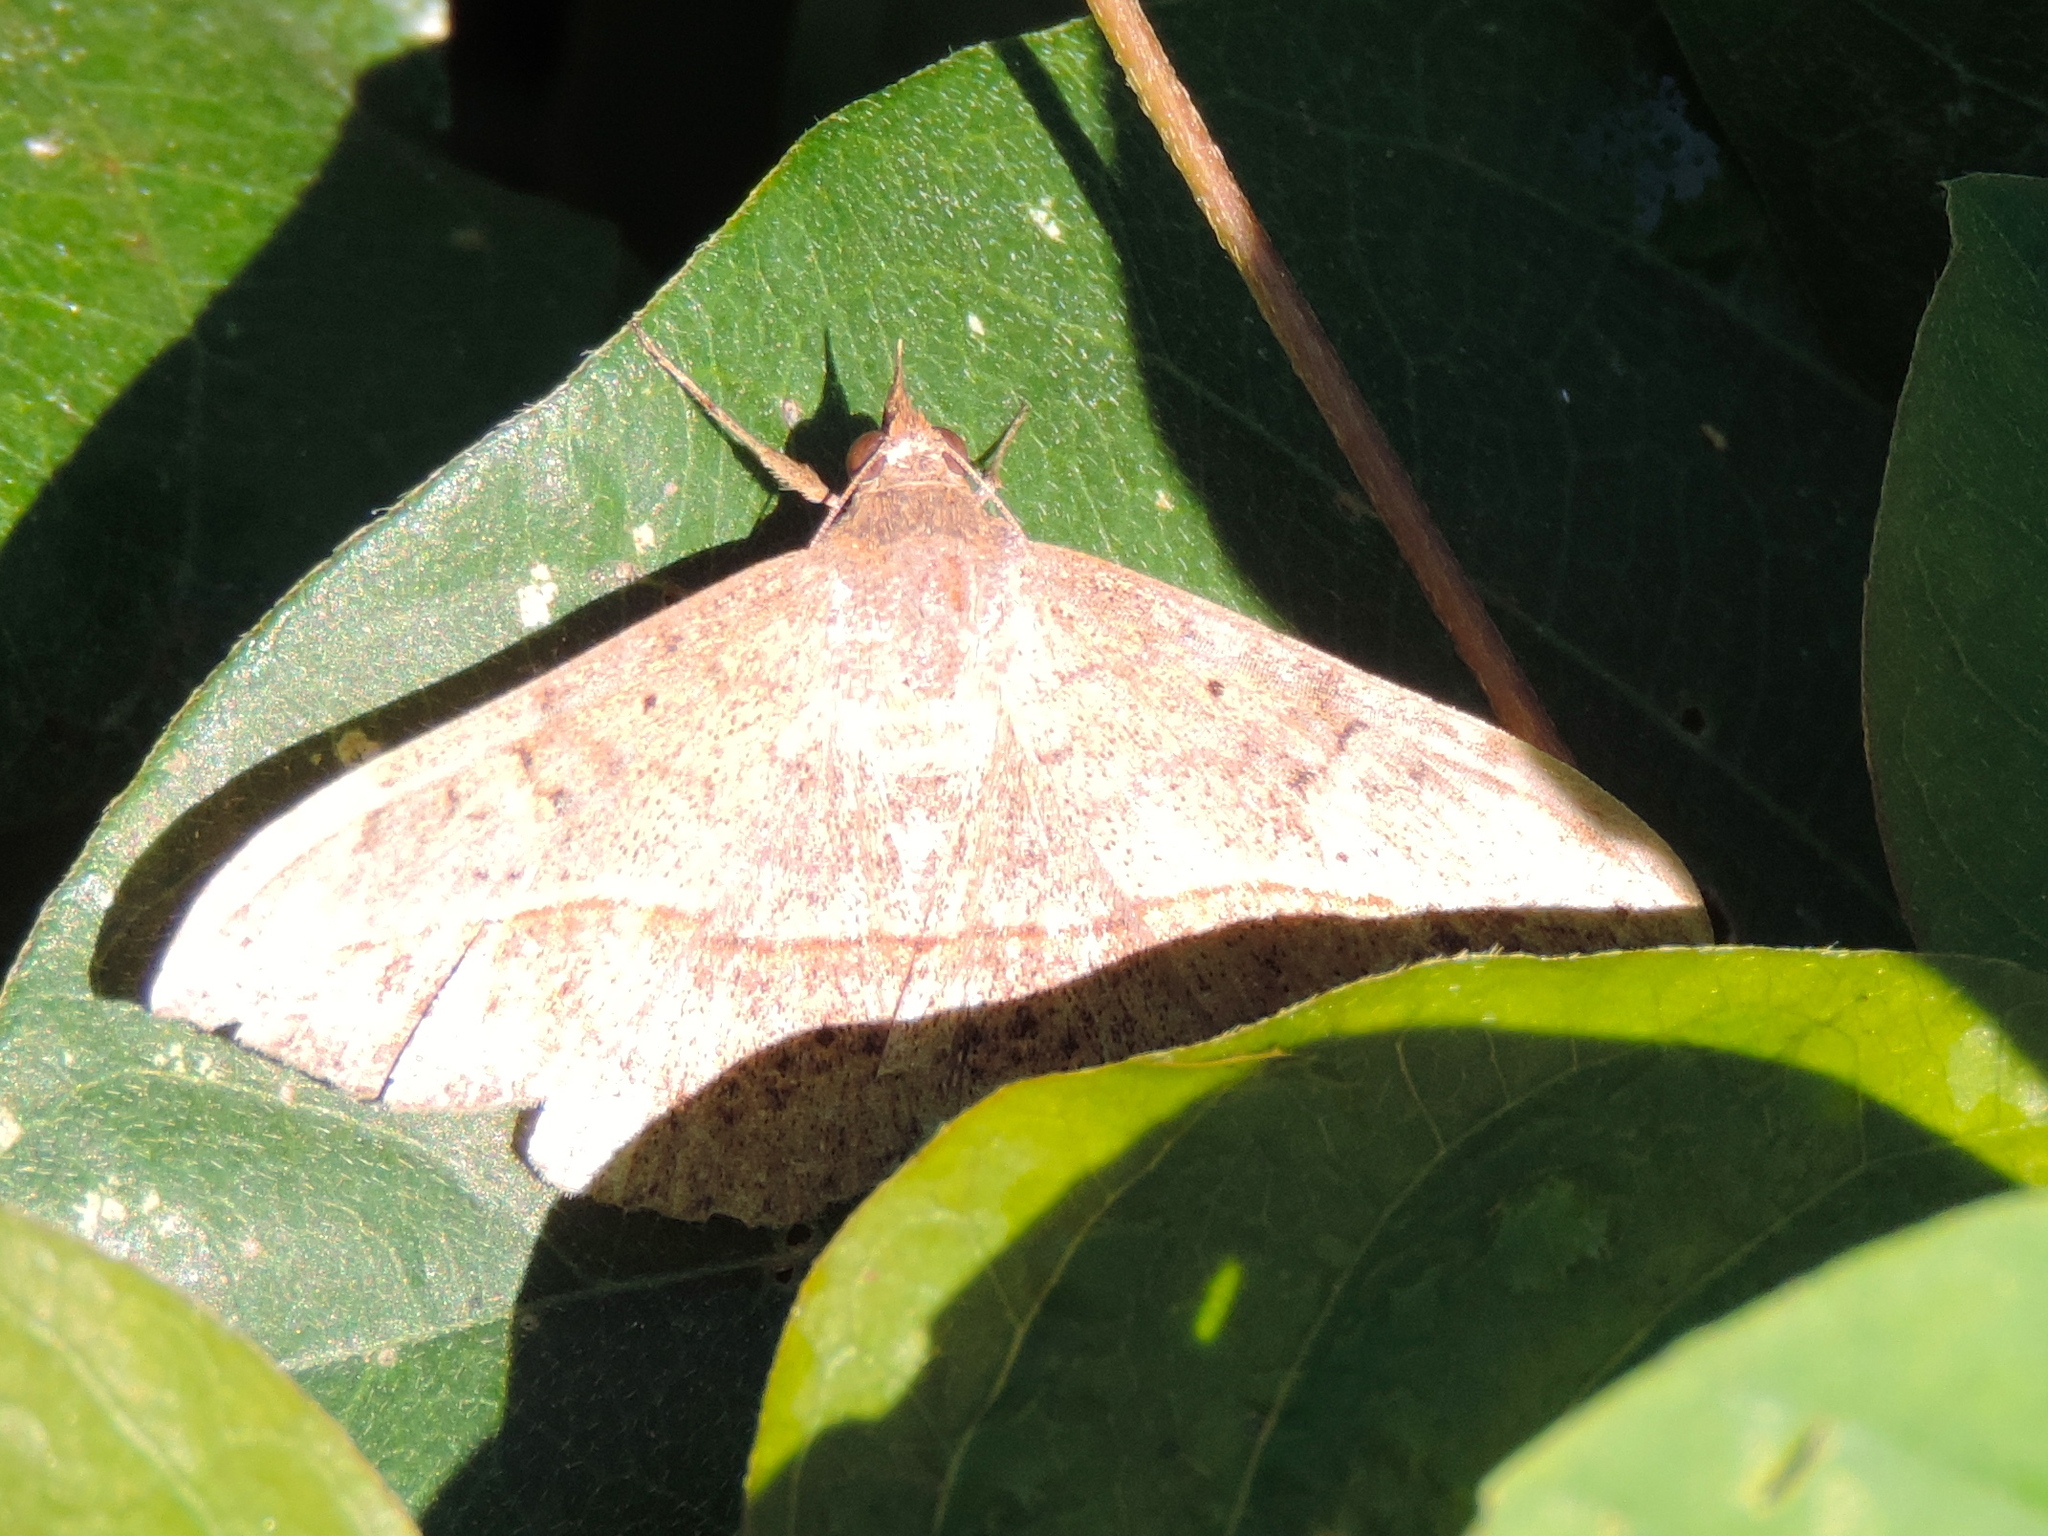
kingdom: Animalia
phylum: Arthropoda
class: Insecta
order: Lepidoptera
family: Erebidae
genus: Anticarsia
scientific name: Anticarsia
